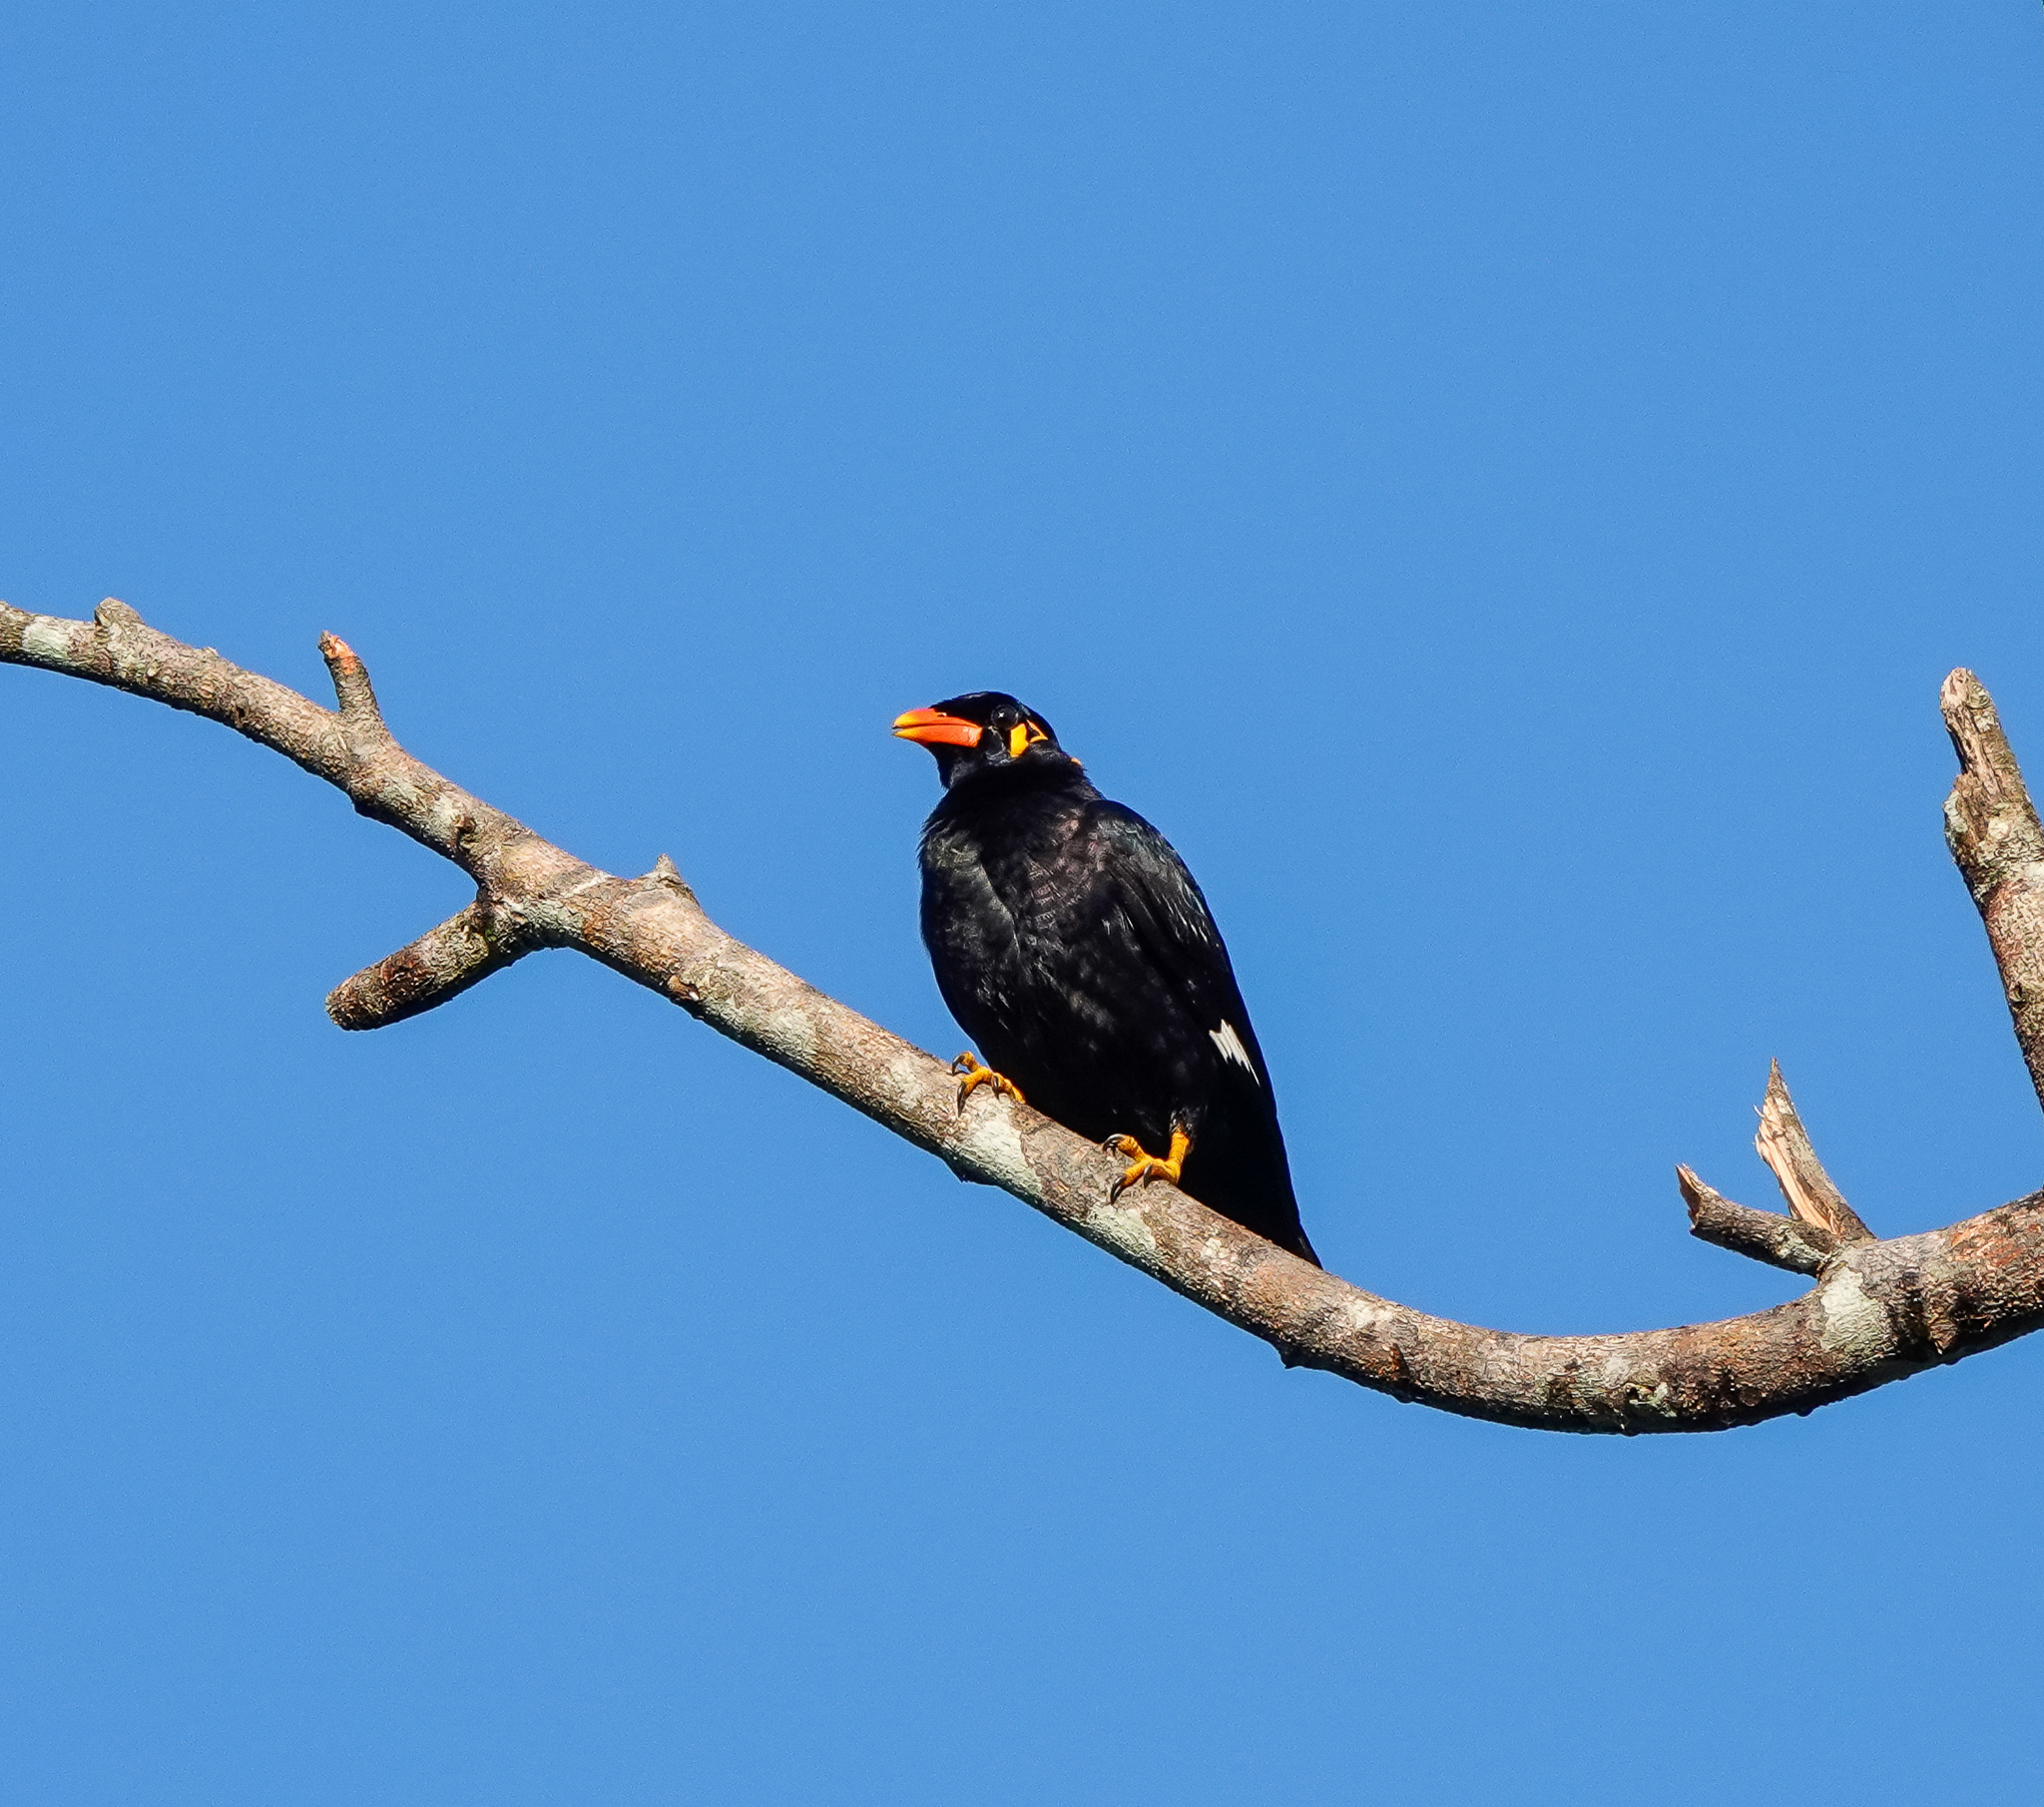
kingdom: Animalia
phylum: Chordata
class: Aves
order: Passeriformes
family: Sturnidae
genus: Gracula
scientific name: Gracula religiosa
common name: Common hill myna
